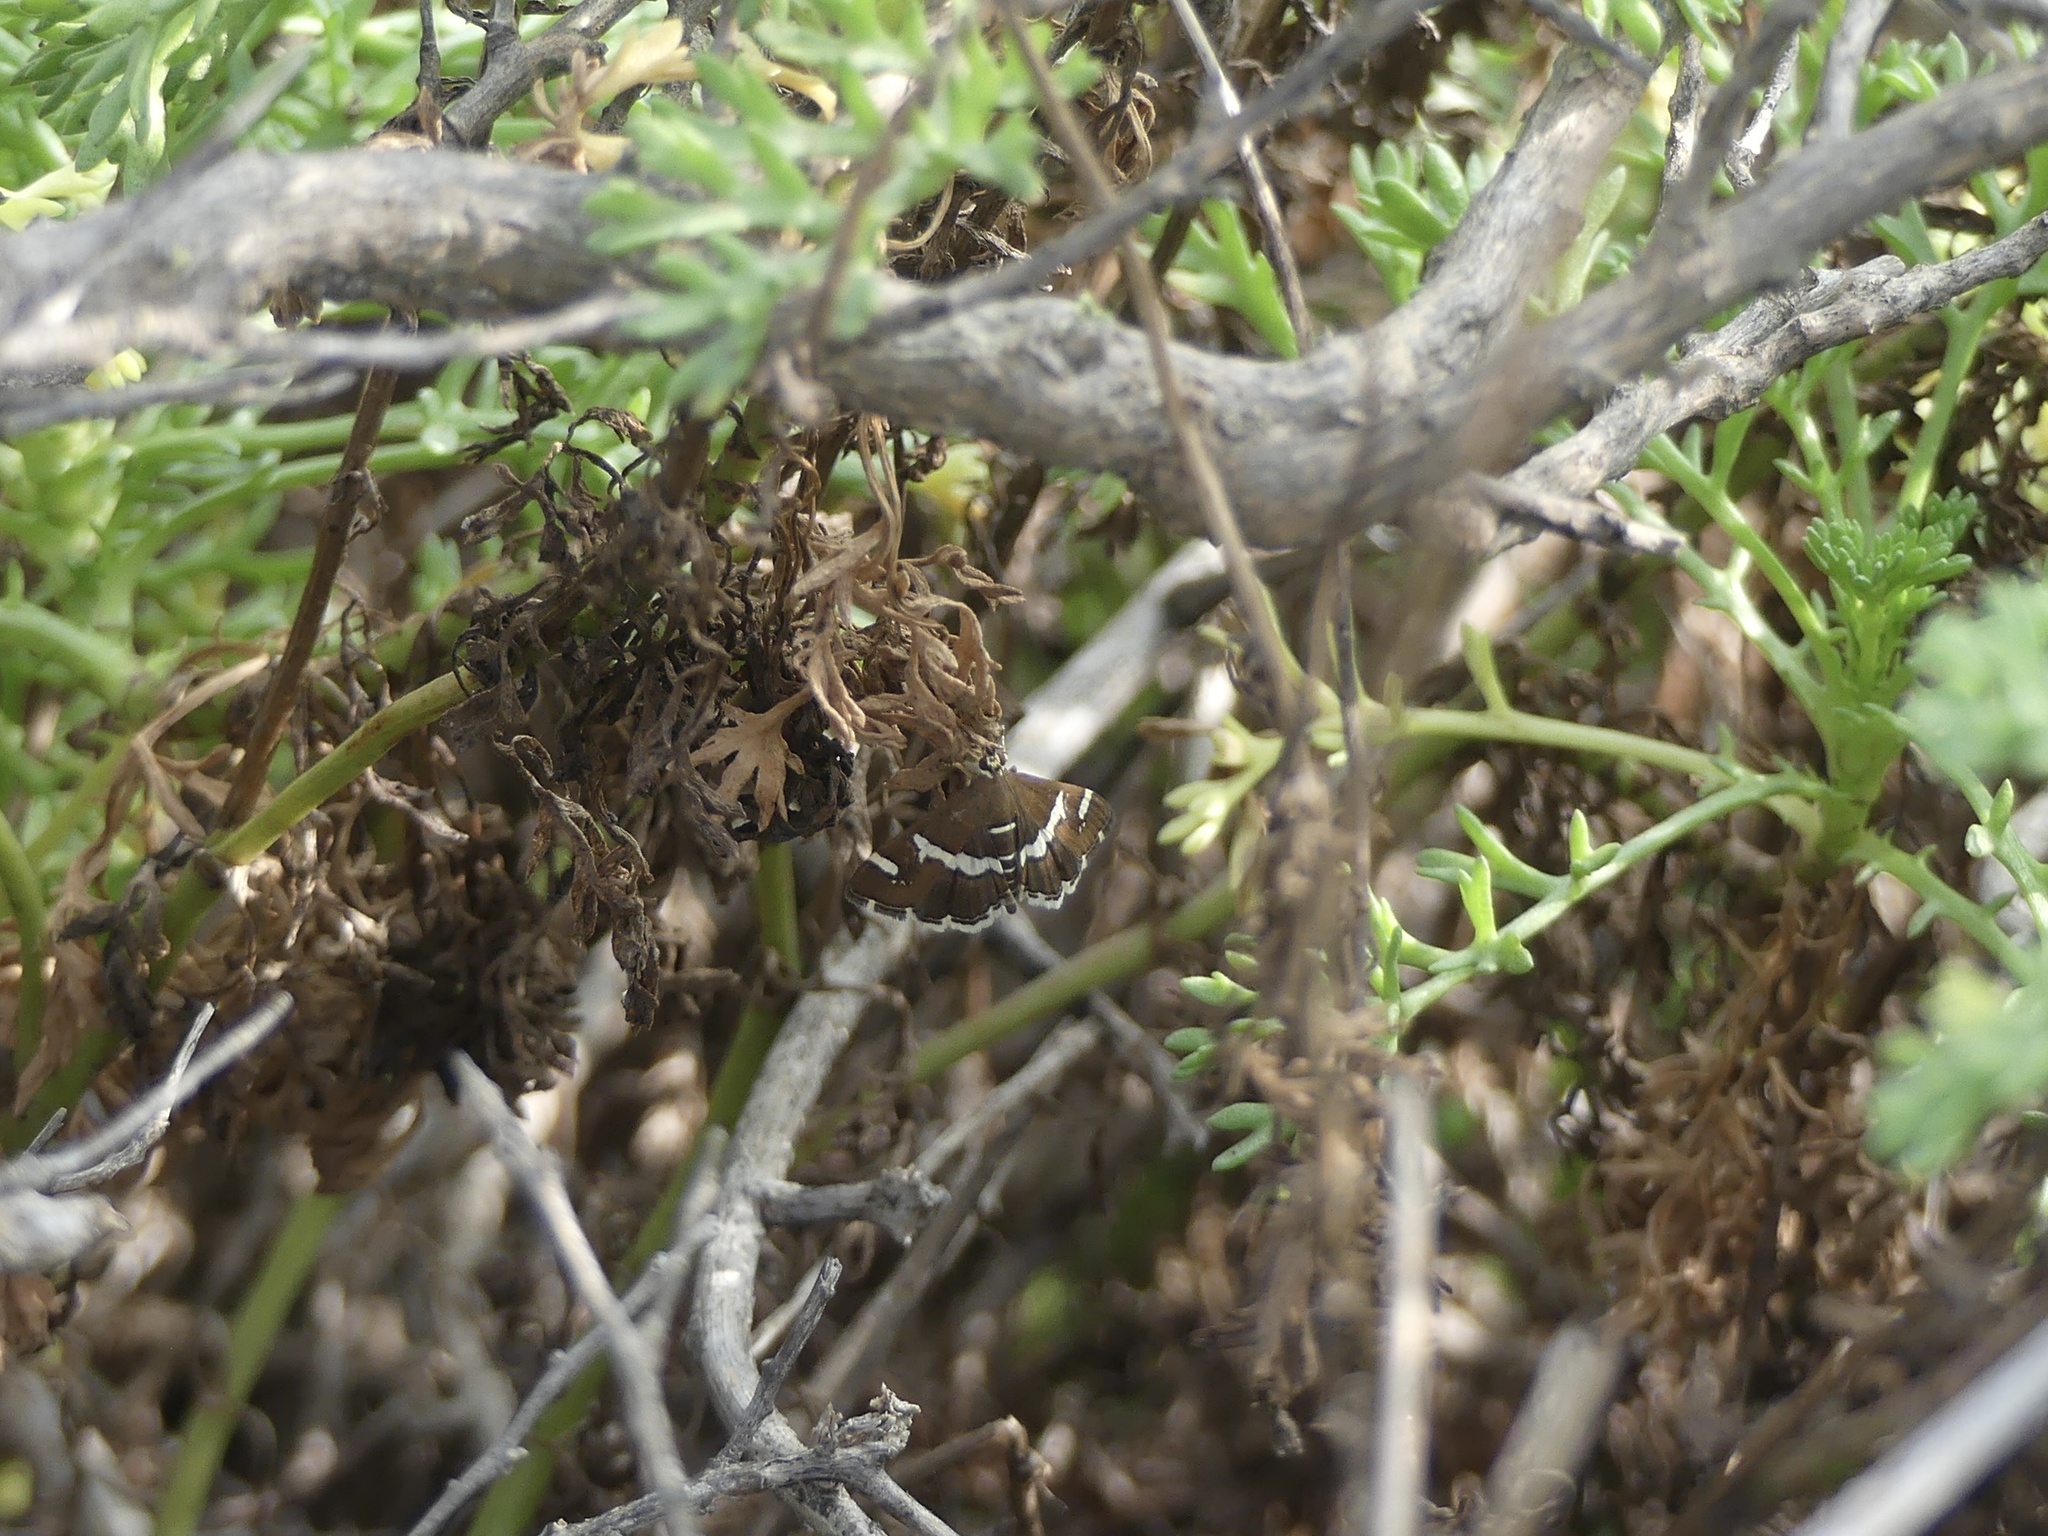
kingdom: Animalia
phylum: Arthropoda
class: Insecta
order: Lepidoptera
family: Crambidae
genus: Spoladea
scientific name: Spoladea recurvalis
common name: Beet webworm moth
